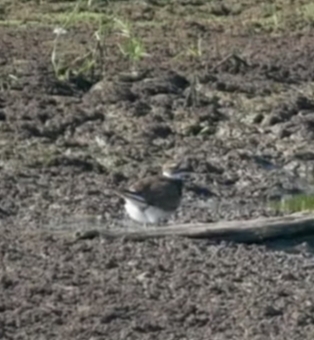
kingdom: Animalia
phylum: Chordata
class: Aves
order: Charadriiformes
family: Charadriidae
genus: Charadrius
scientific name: Charadrius vociferus
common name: Killdeer
